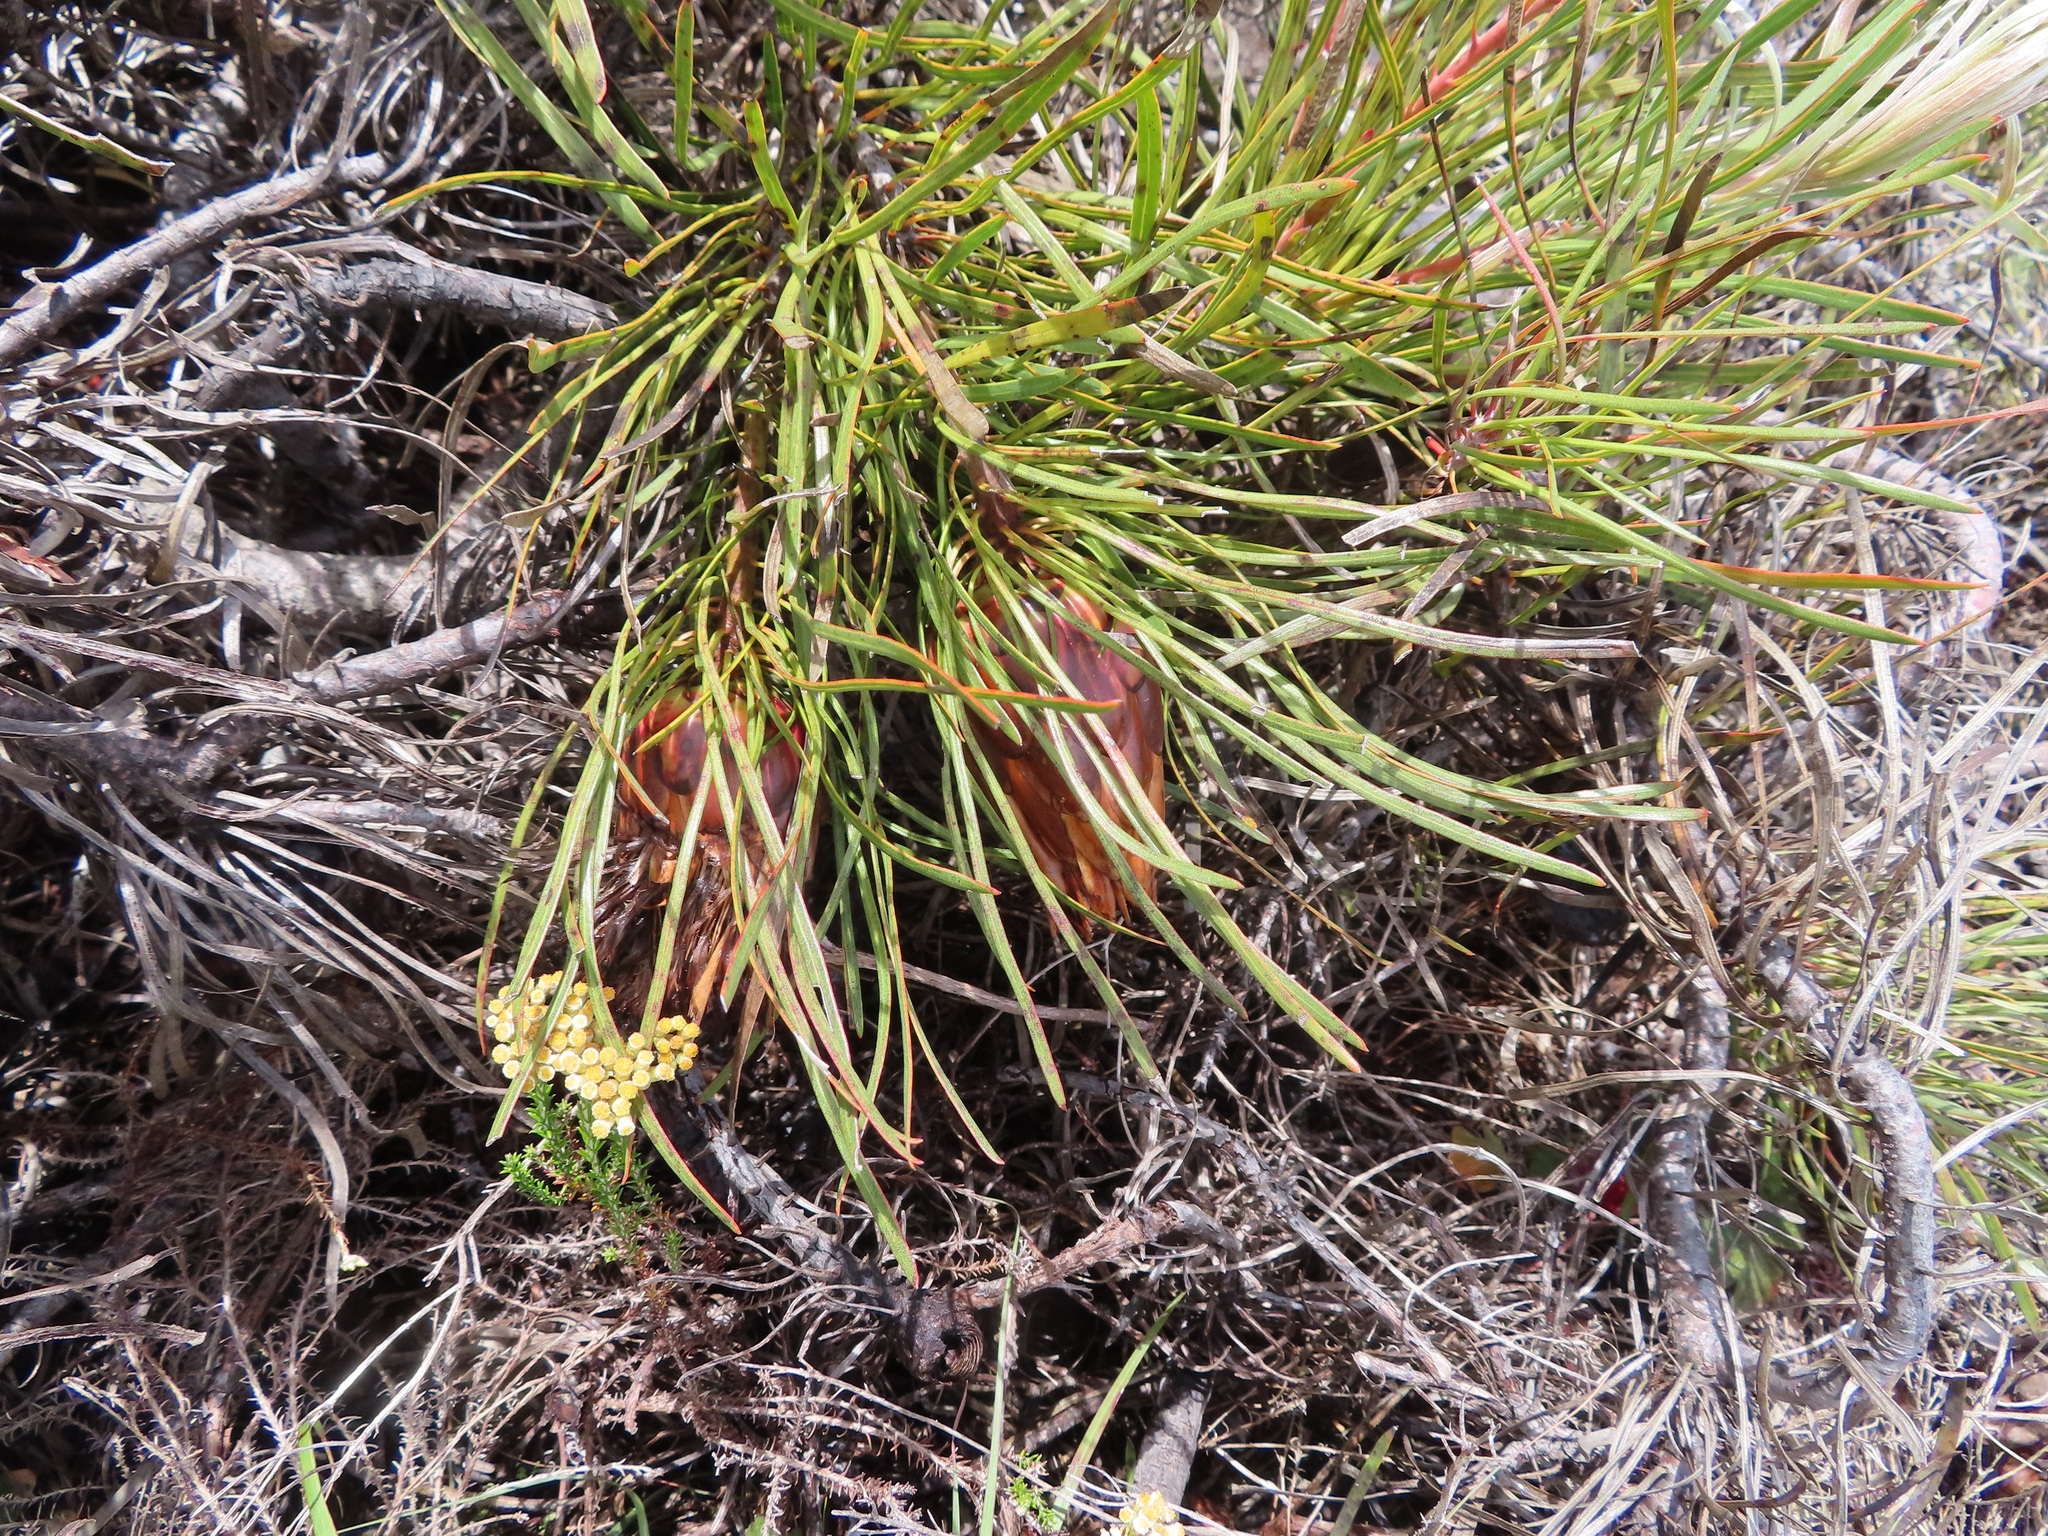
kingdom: Plantae
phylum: Tracheophyta
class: Magnoliopsida
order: Proteales
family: Proteaceae
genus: Protea
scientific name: Protea pudens
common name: Bashful sugarbush
